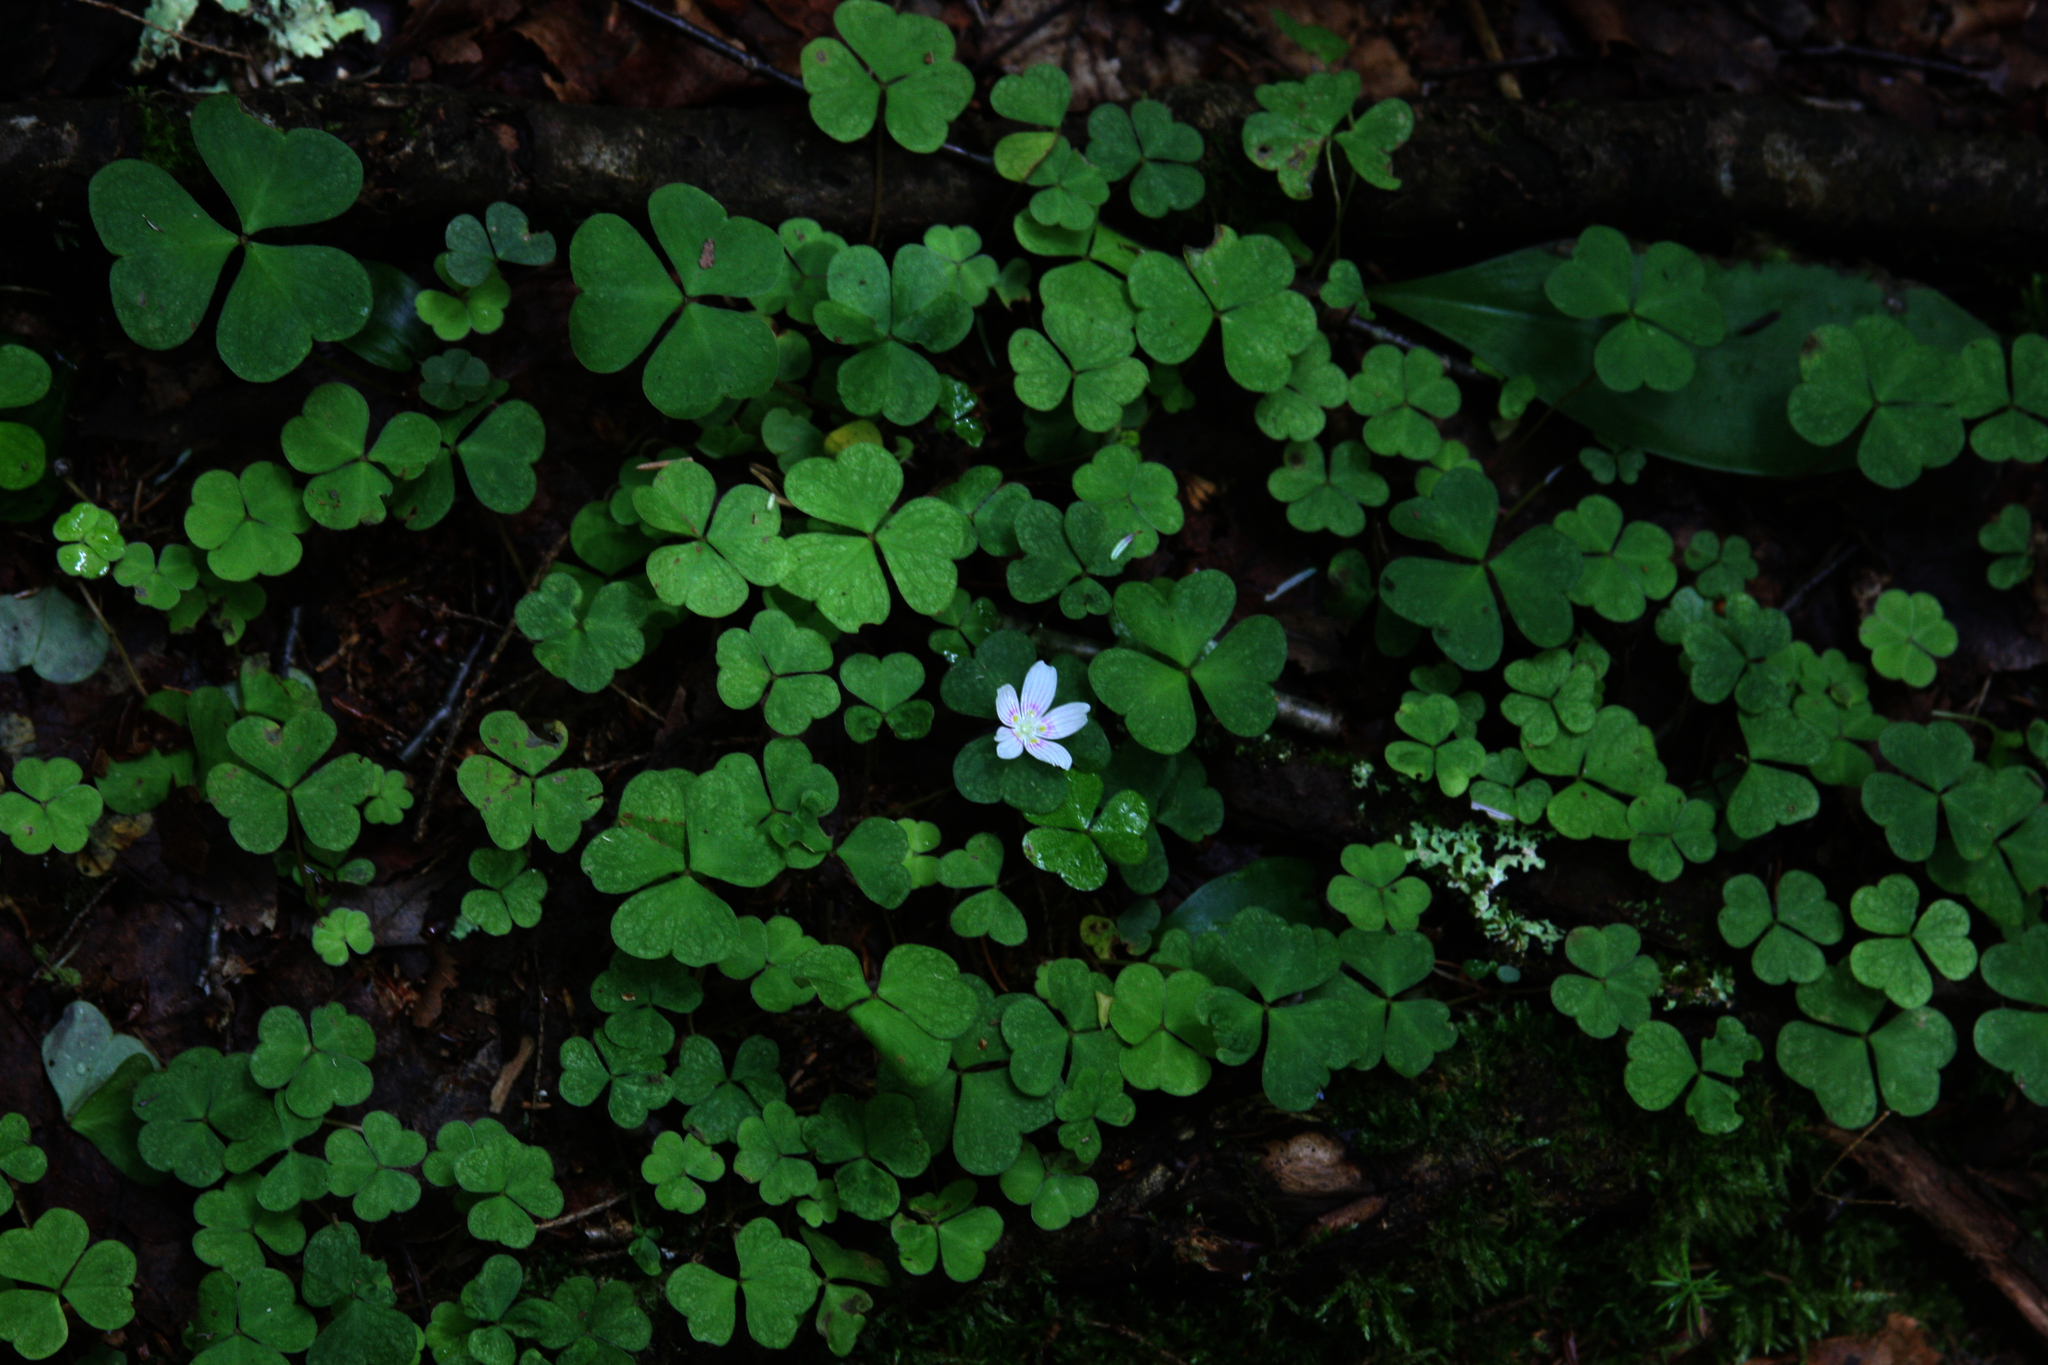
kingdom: Plantae
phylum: Tracheophyta
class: Magnoliopsida
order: Oxalidales
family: Oxalidaceae
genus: Oxalis
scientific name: Oxalis montana
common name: American wood-sorrel
